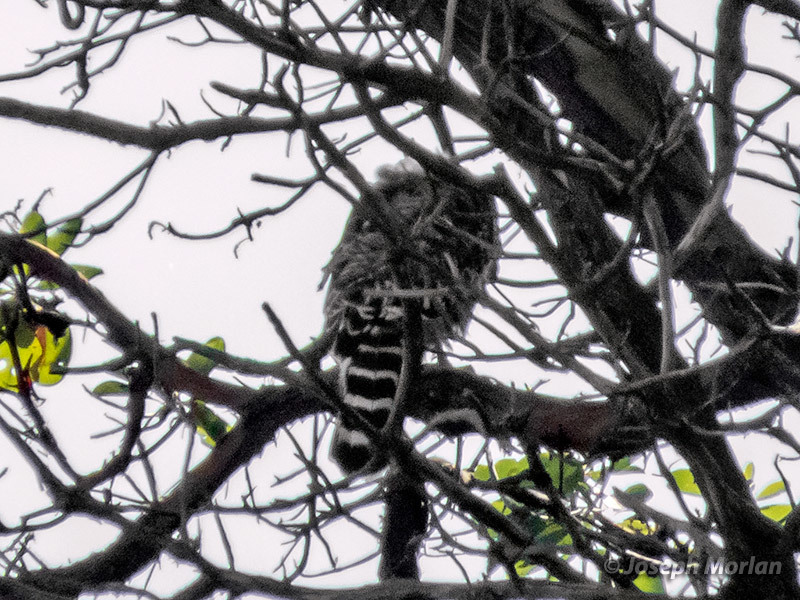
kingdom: Animalia
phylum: Chordata
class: Aves
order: Accipitriformes
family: Accipitridae
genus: Buteo
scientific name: Buteo lineatus
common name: Red-shouldered hawk
